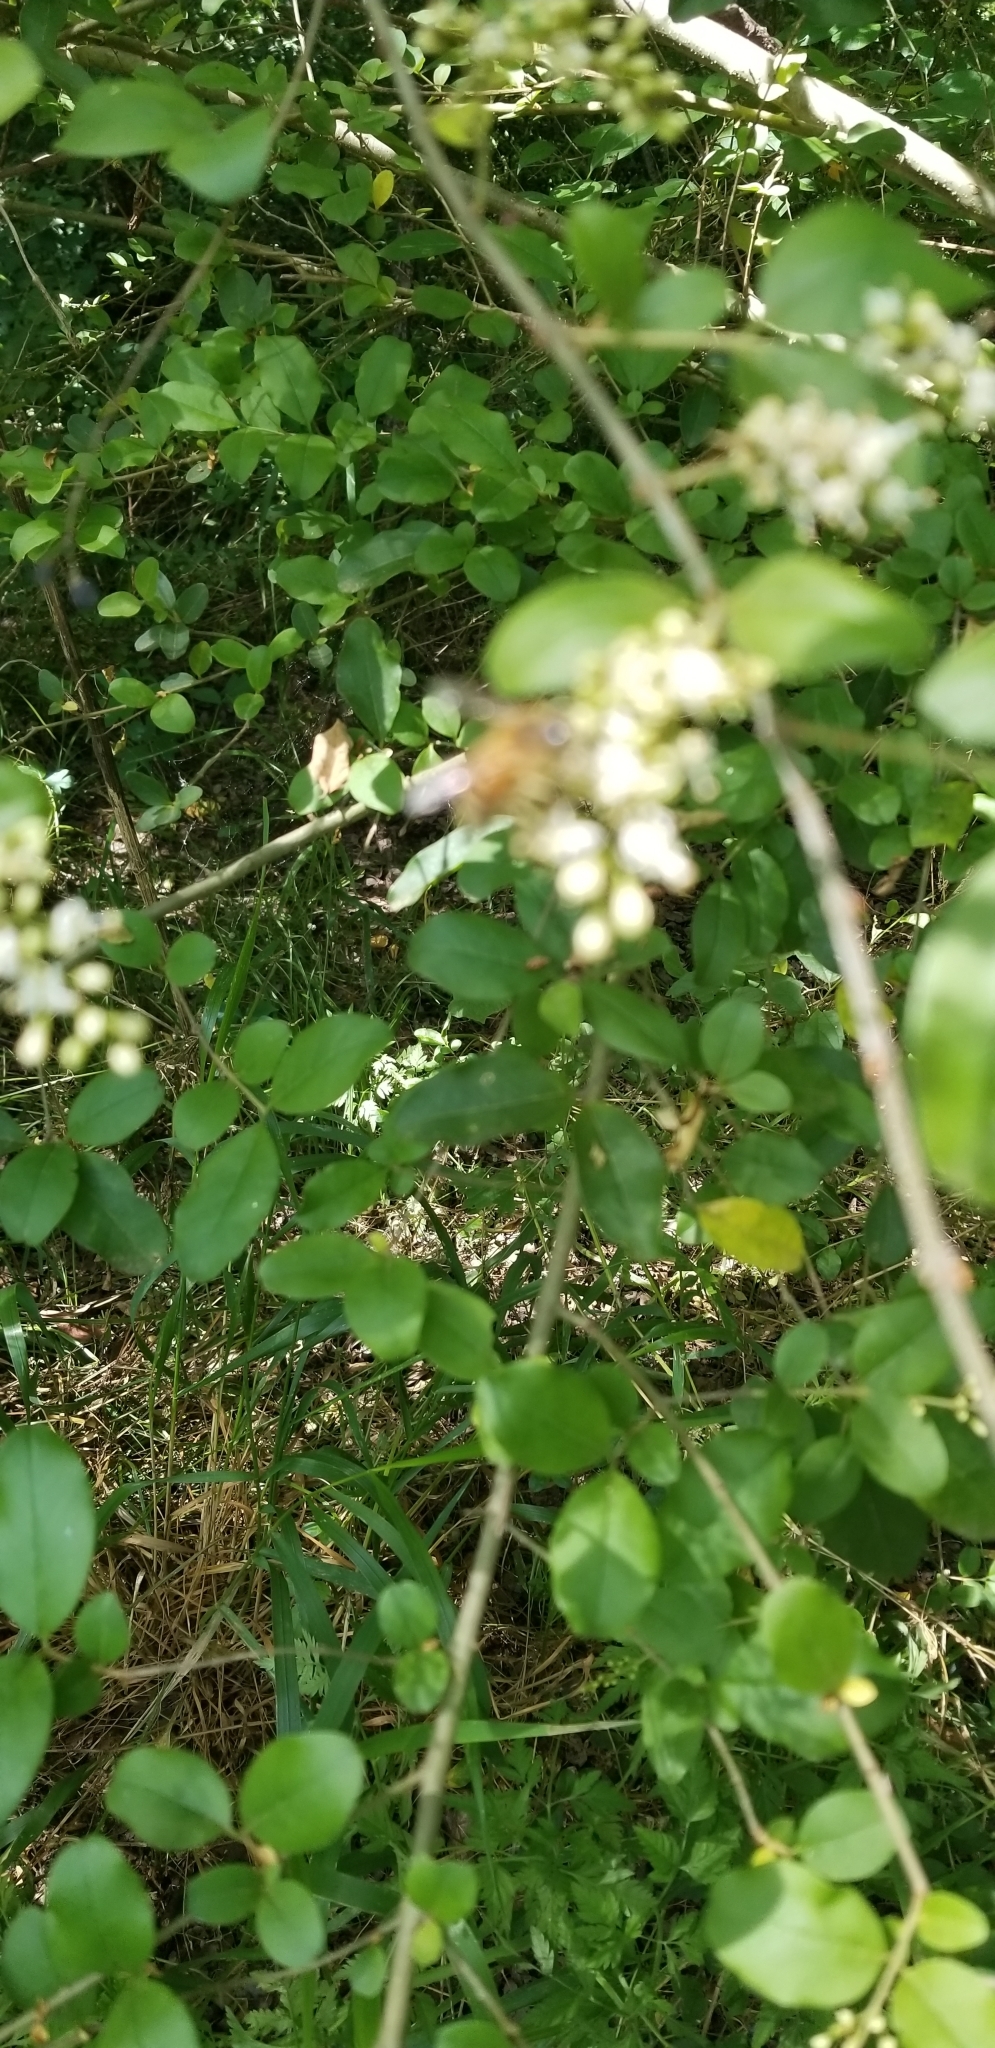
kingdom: Animalia
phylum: Arthropoda
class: Insecta
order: Hymenoptera
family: Apidae
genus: Apis
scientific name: Apis mellifera
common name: Honey bee
